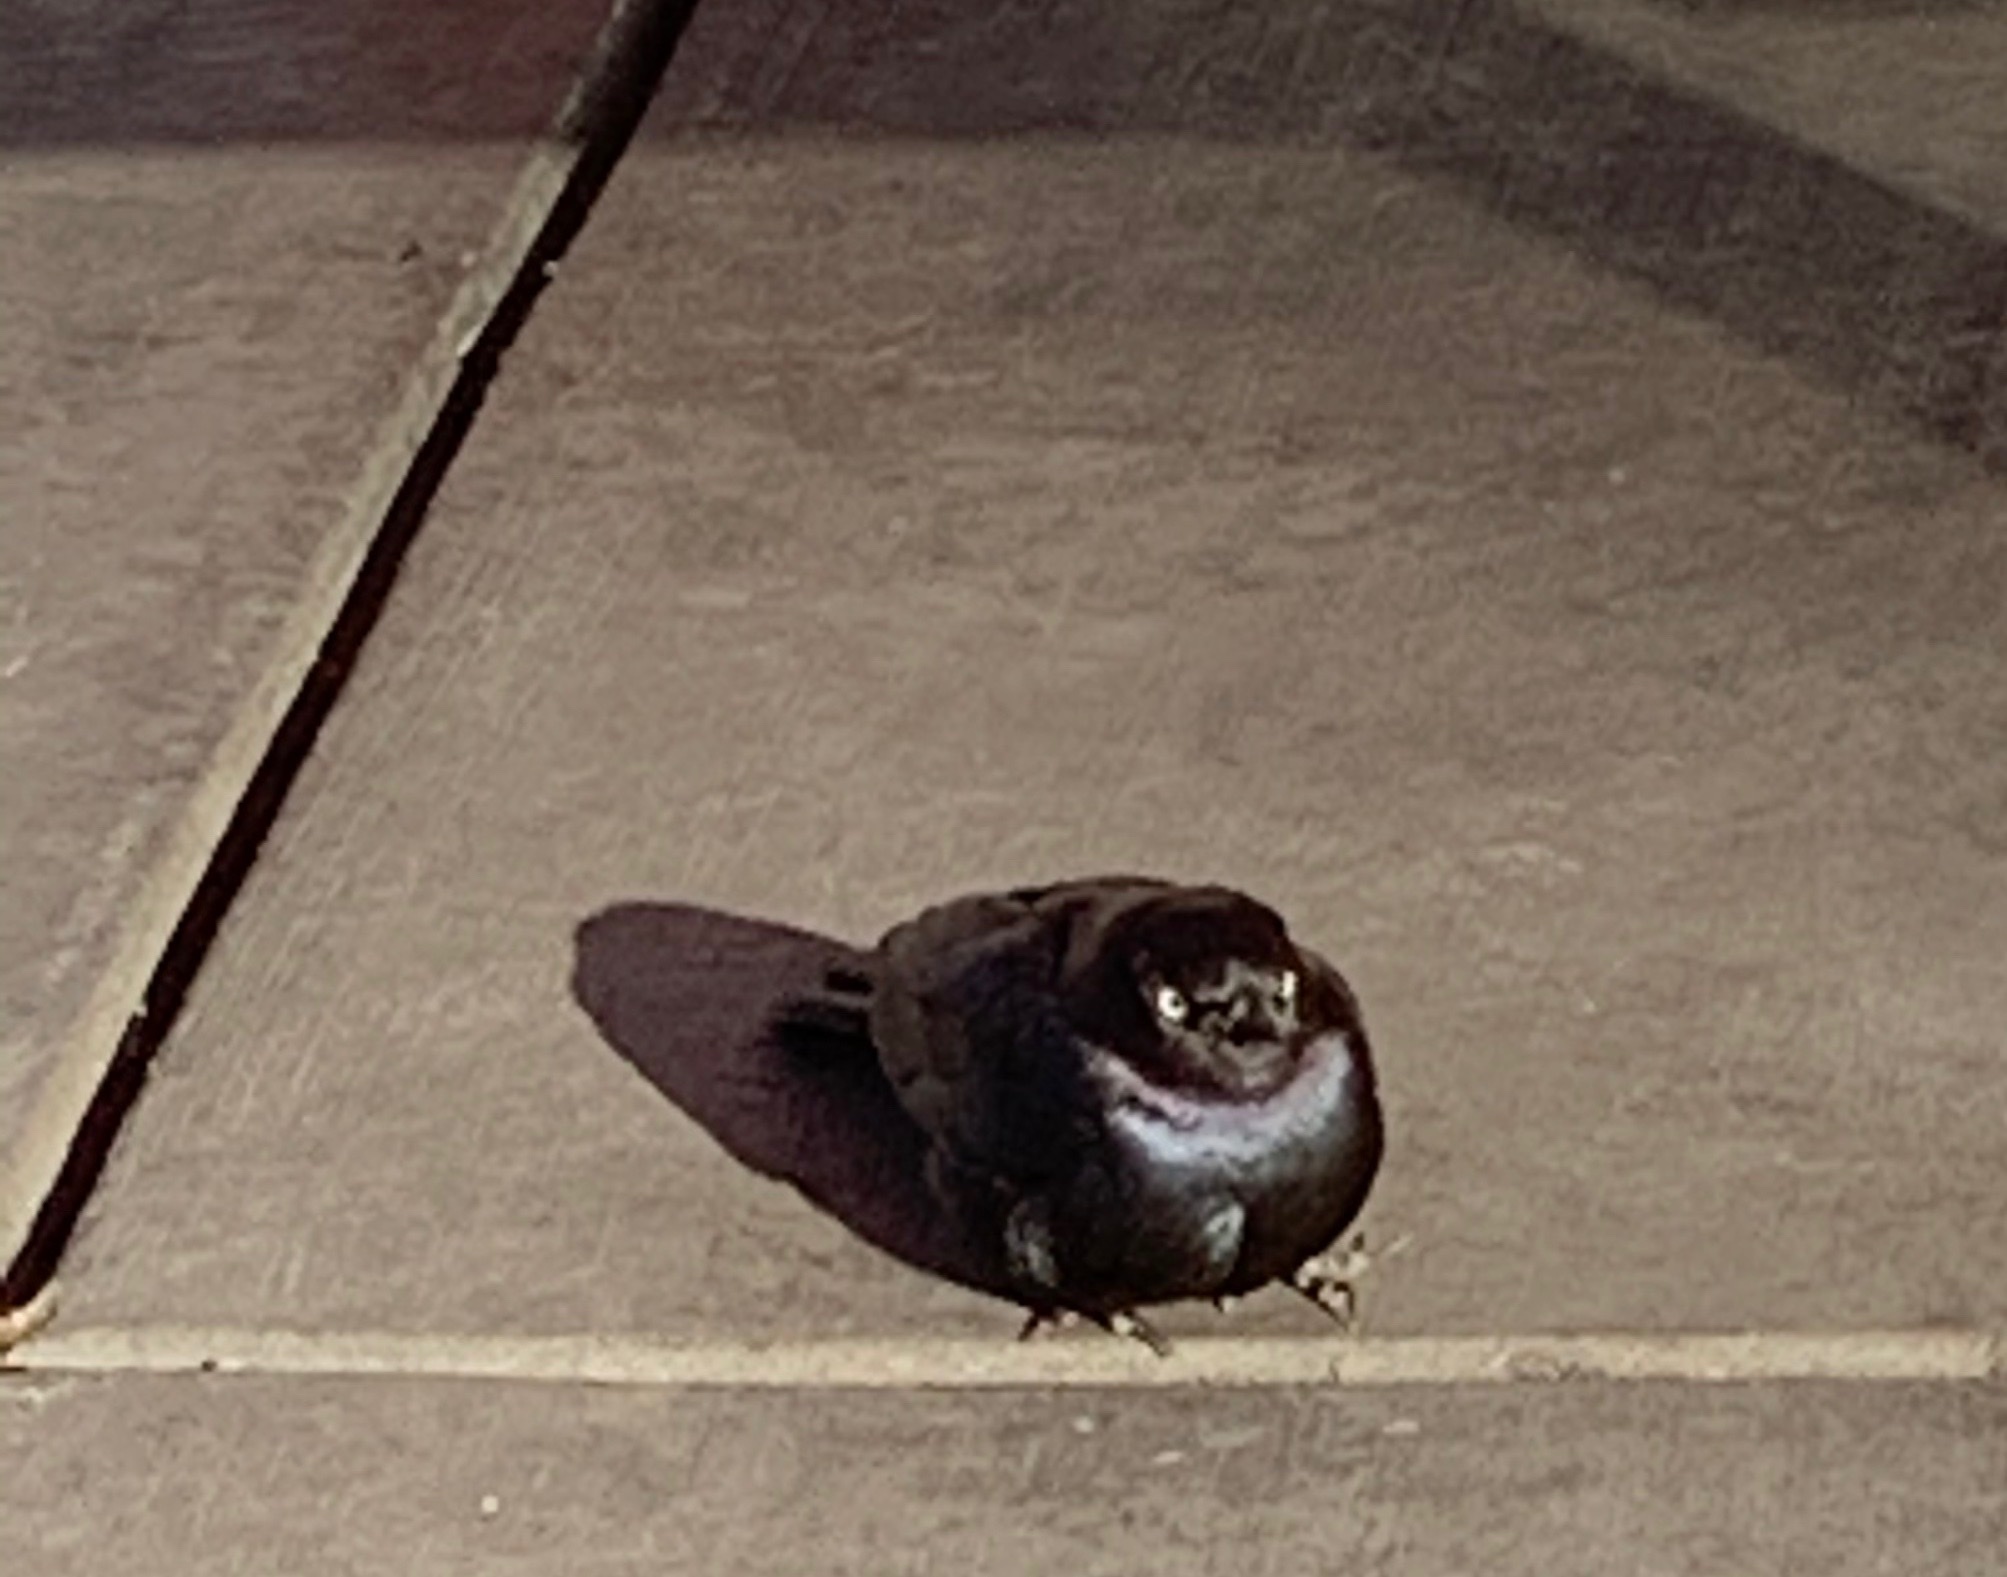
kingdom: Animalia
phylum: Chordata
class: Aves
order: Passeriformes
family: Icteridae
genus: Euphagus
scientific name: Euphagus cyanocephalus
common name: Brewer's blackbird
